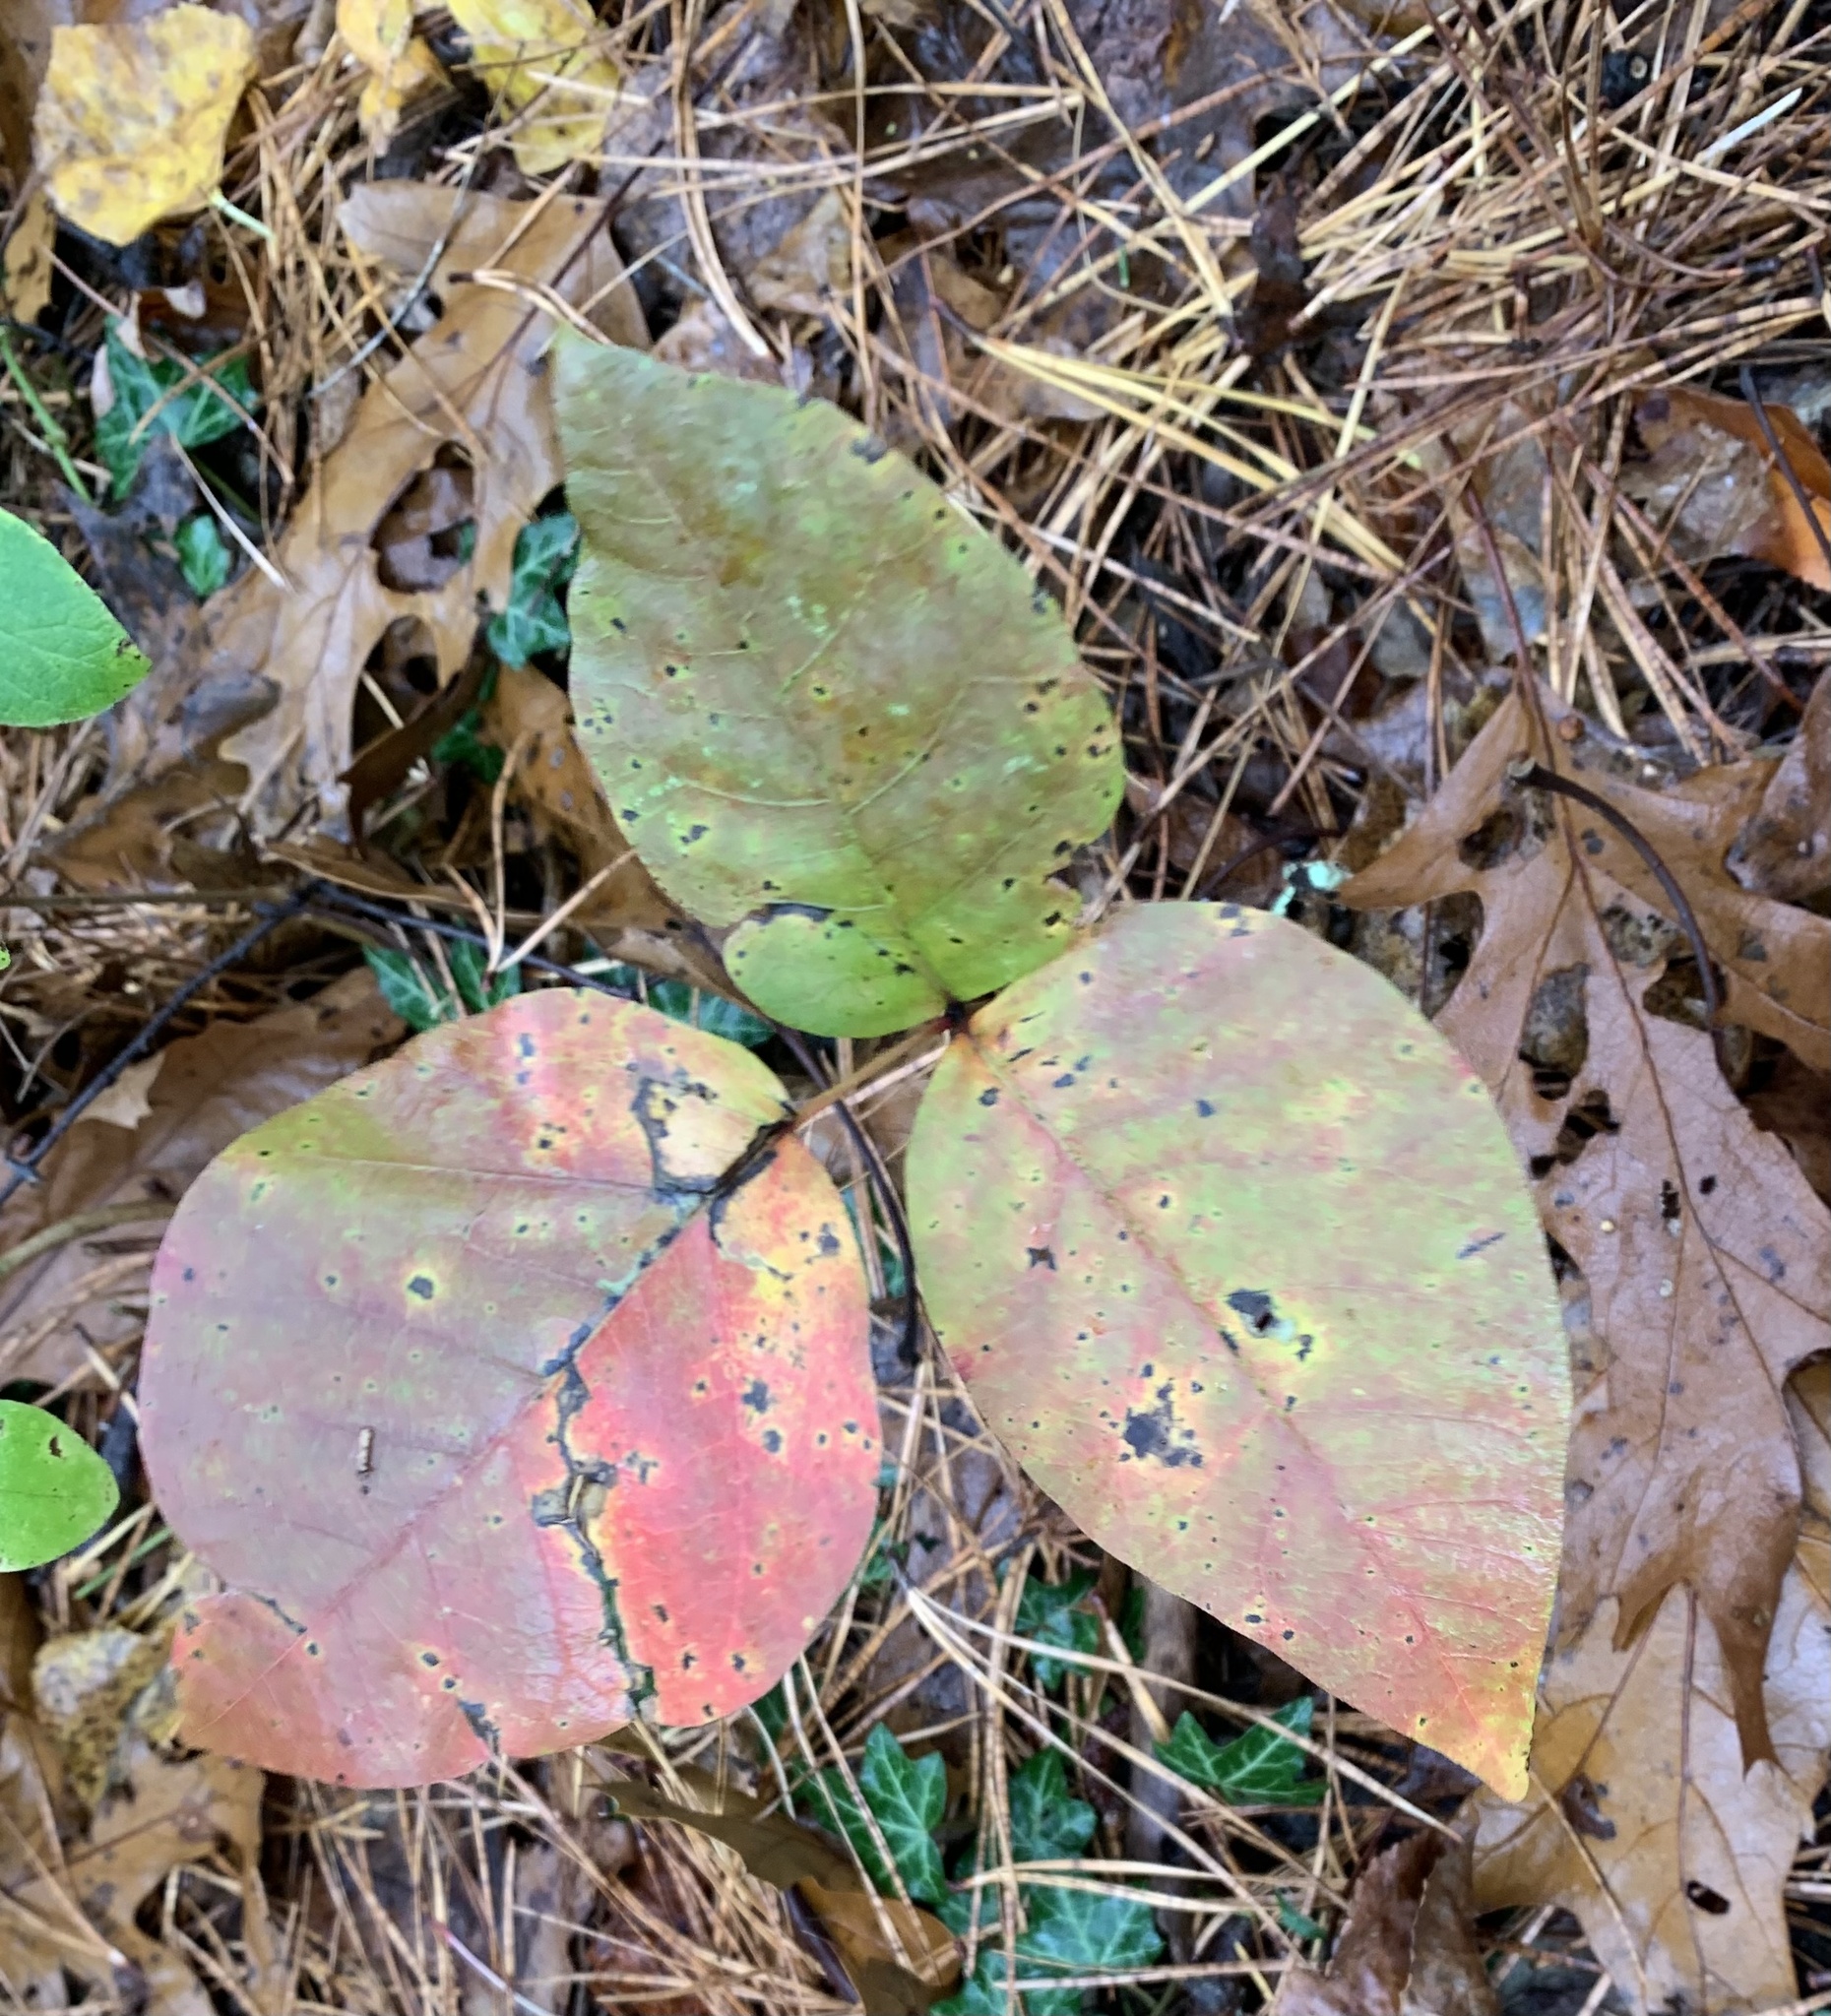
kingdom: Plantae
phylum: Tracheophyta
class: Magnoliopsida
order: Sapindales
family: Anacardiaceae
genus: Toxicodendron
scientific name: Toxicodendron radicans
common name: Poison ivy
